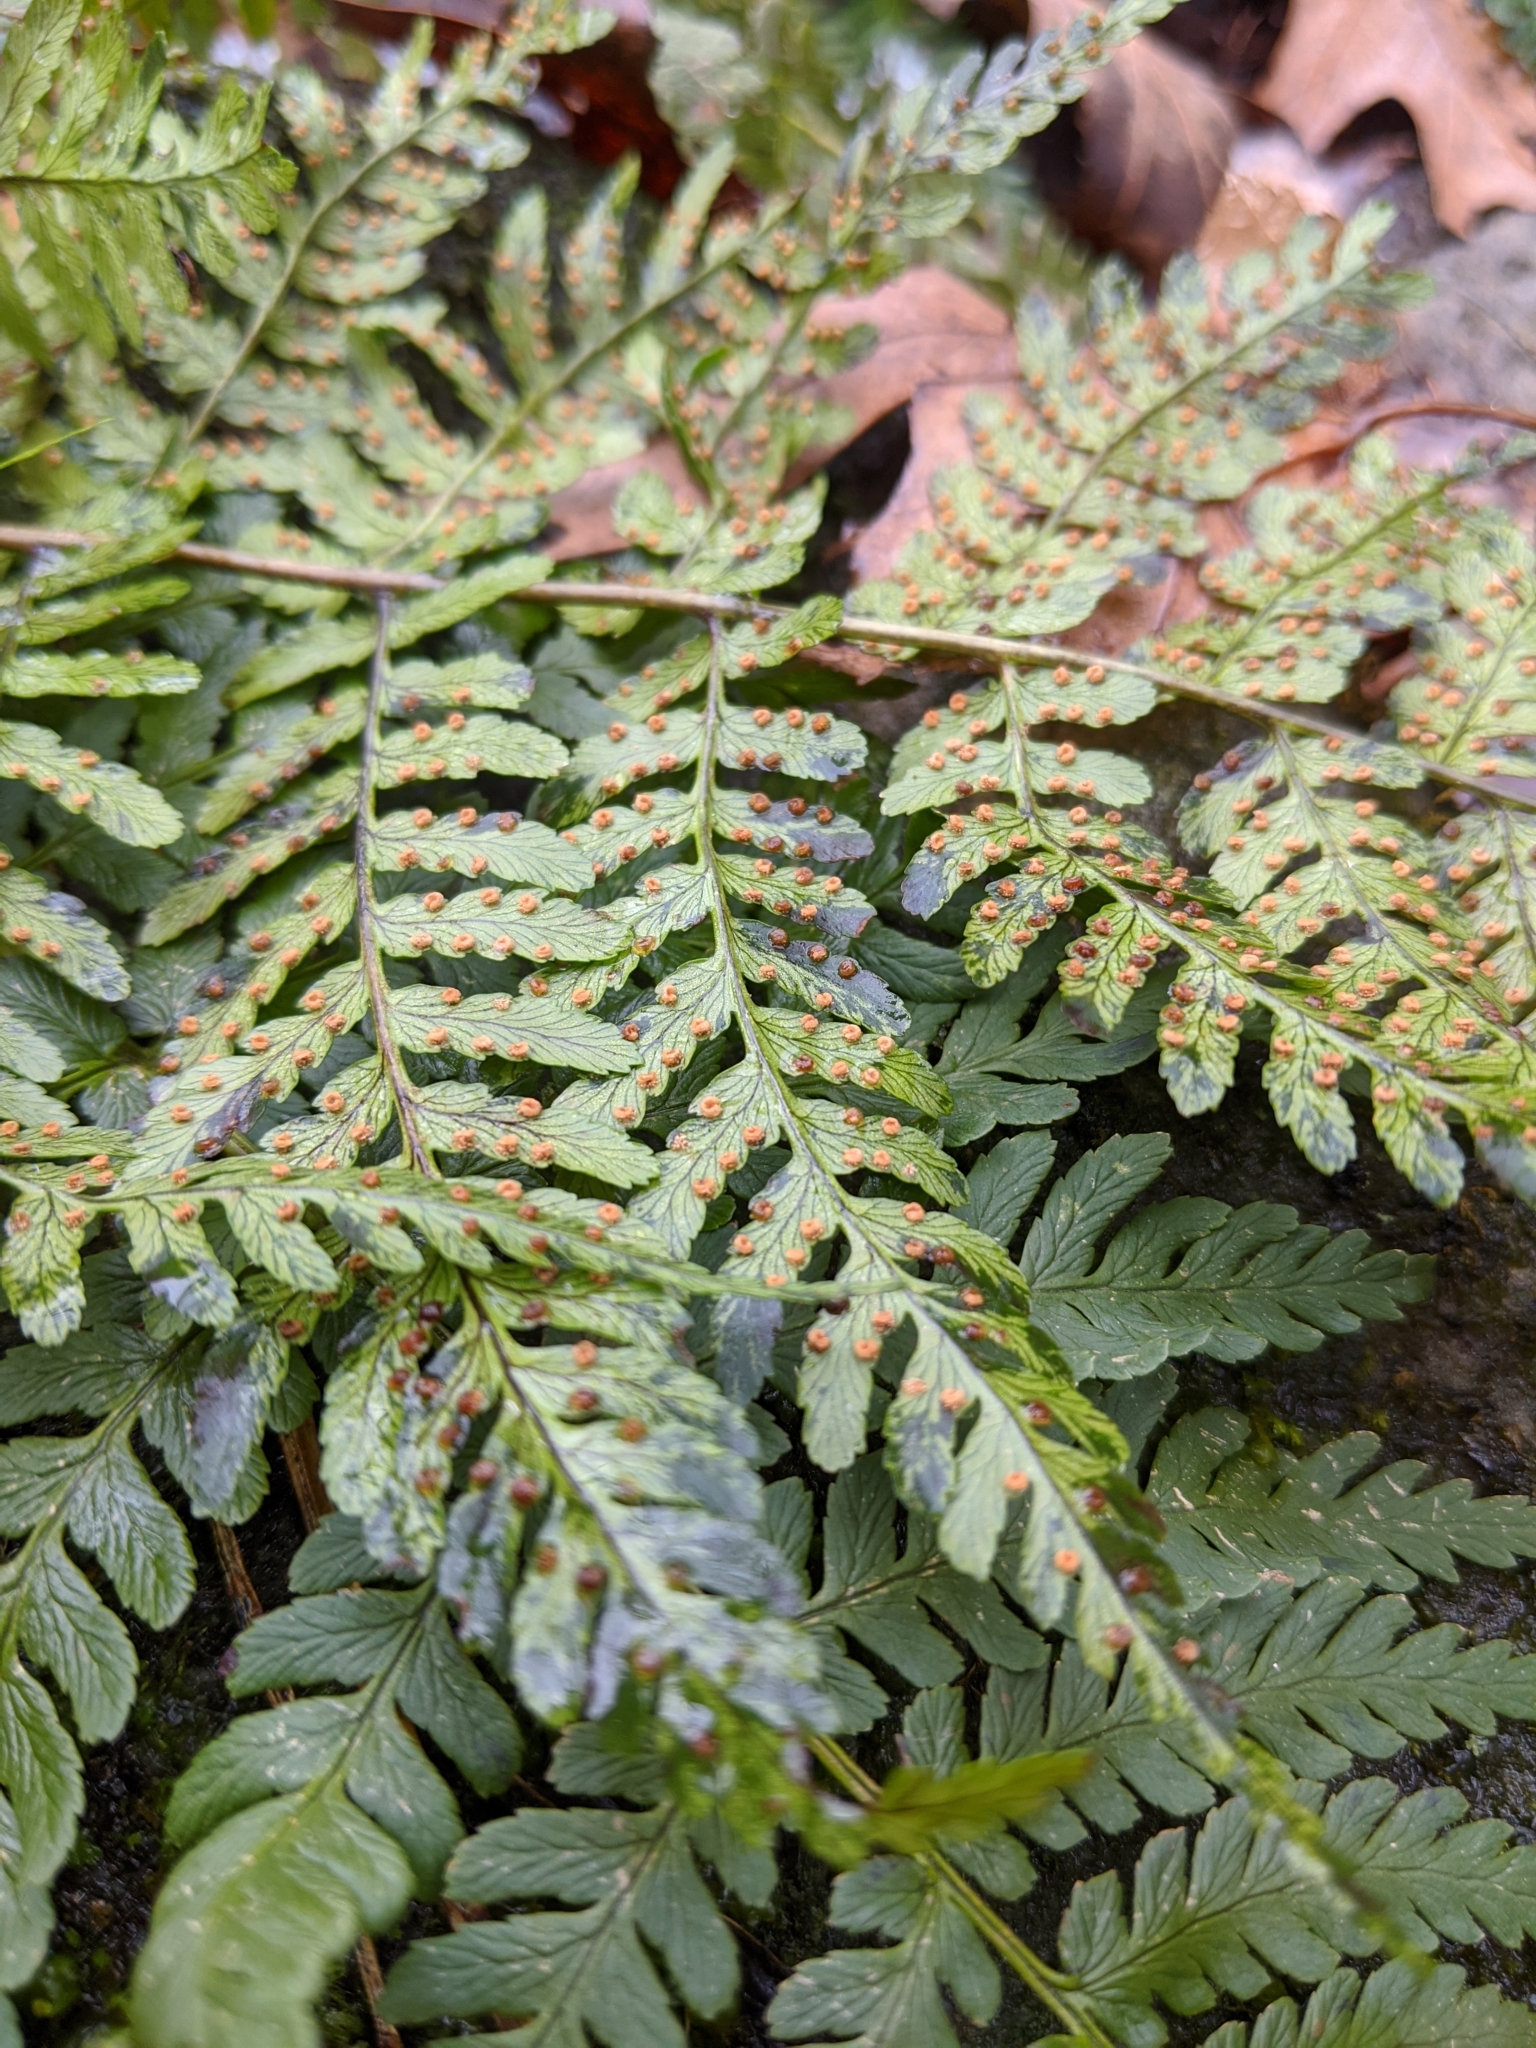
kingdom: Plantae
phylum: Tracheophyta
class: Polypodiopsida
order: Polypodiales
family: Dryopteridaceae
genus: Dryopteris
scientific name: Dryopteris marginalis
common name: Marginal wood fern
